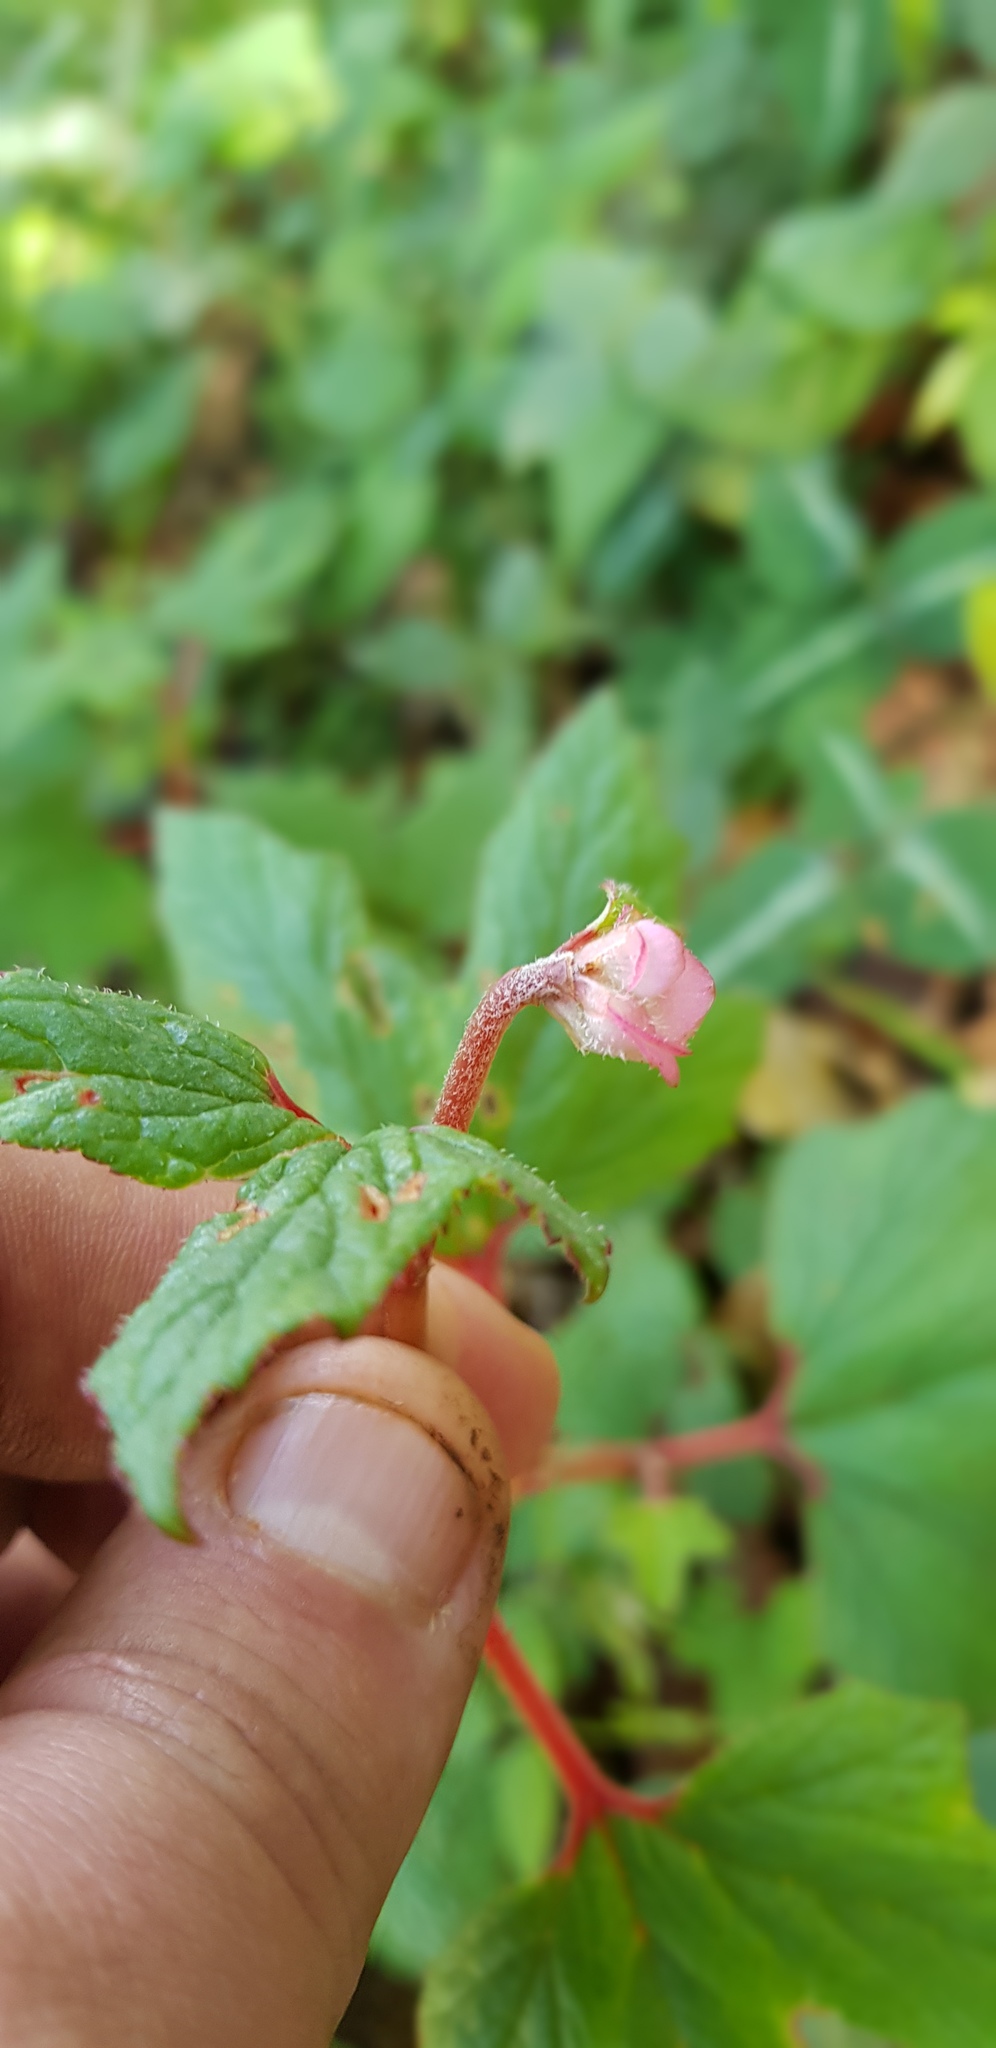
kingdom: Plantae
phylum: Tracheophyta
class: Magnoliopsida
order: Cucurbitales
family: Begoniaceae
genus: Begonia
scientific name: Begonia pedata
